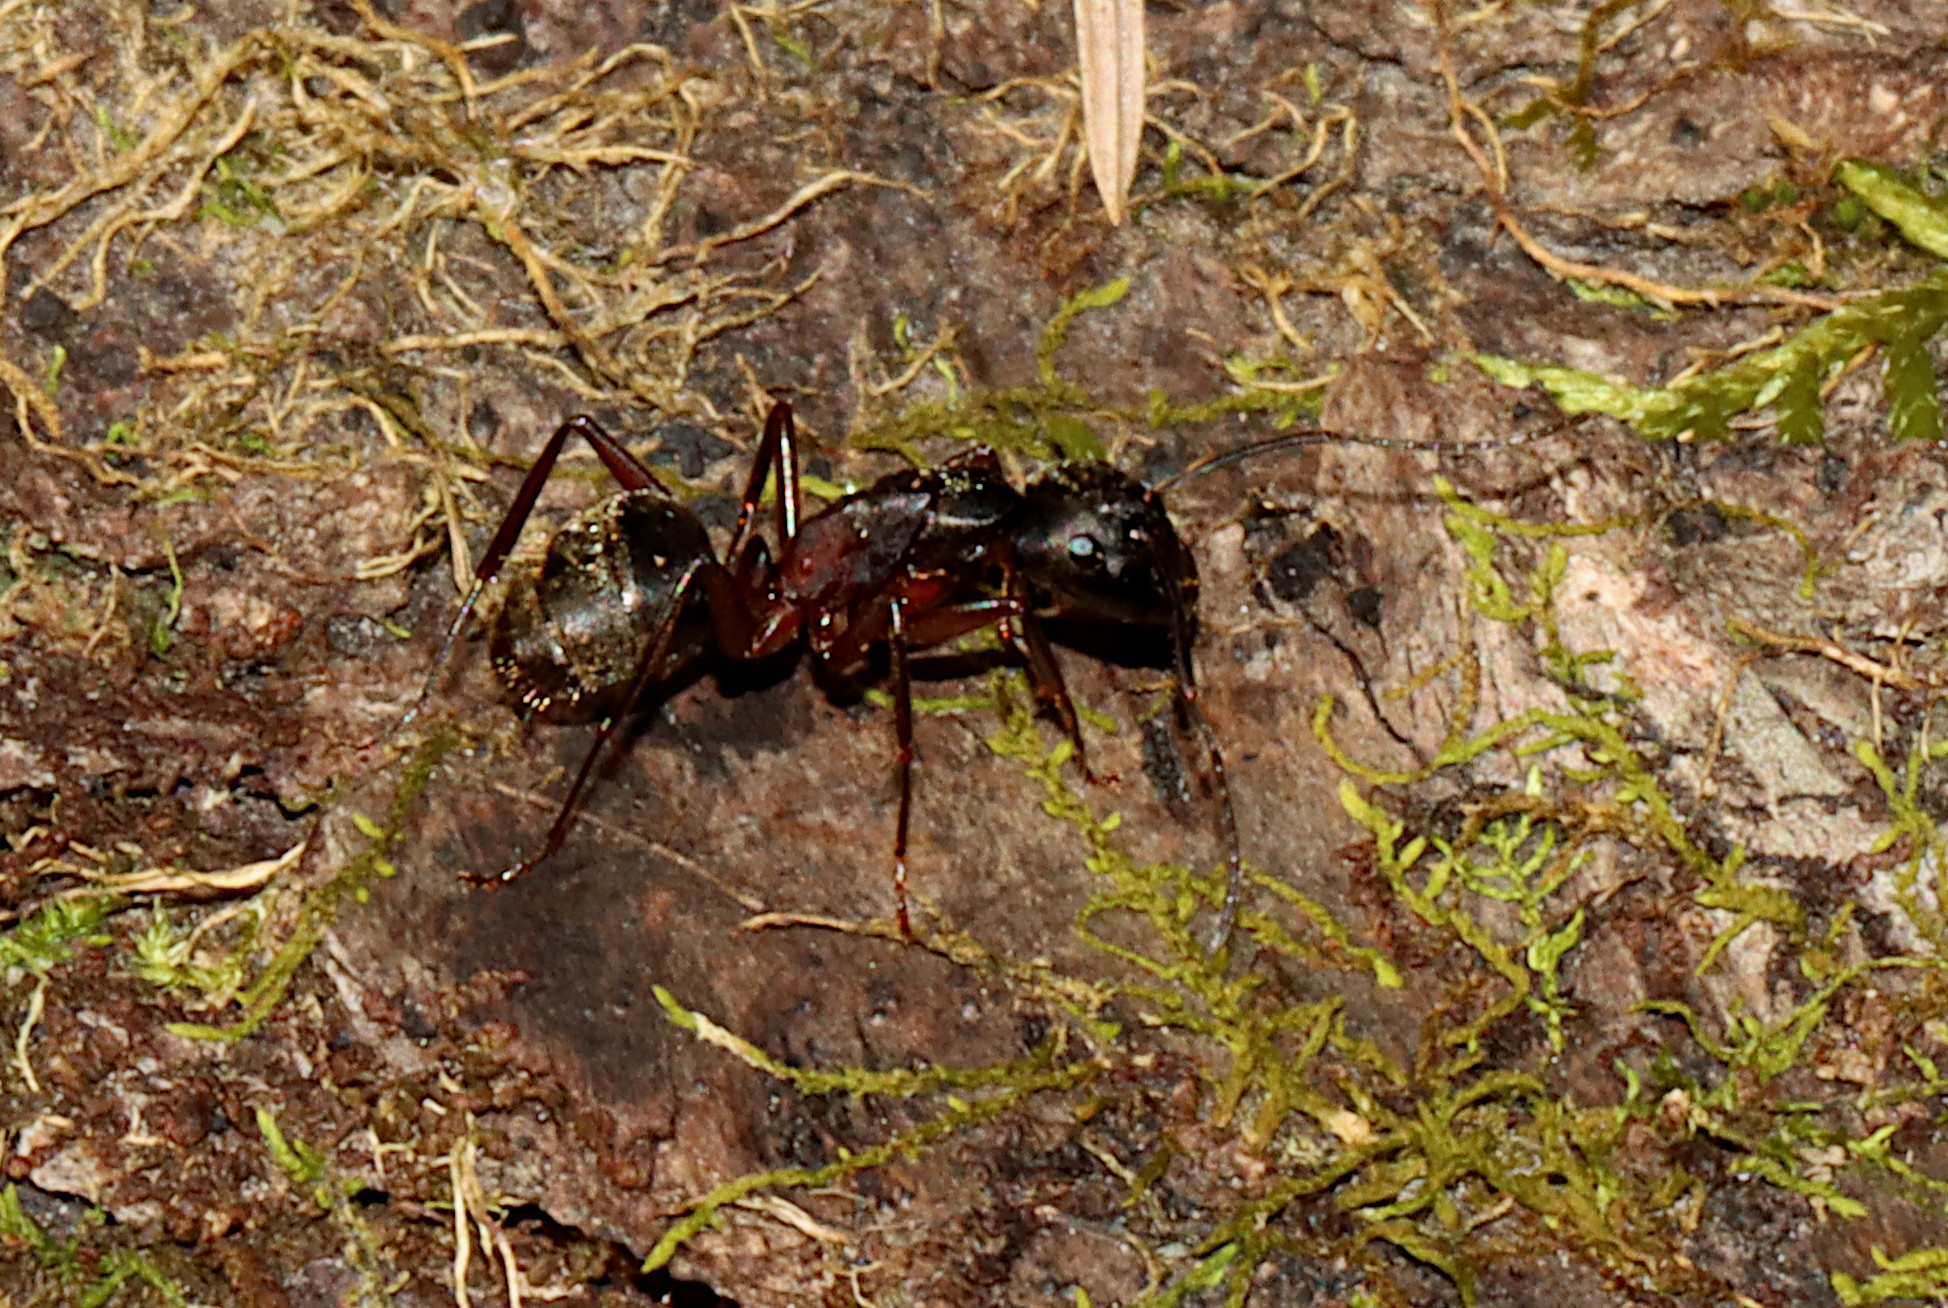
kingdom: Animalia
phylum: Arthropoda
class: Insecta
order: Hymenoptera
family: Formicidae
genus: Camponotus
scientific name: Camponotus chromaiodes
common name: Red carpenter ant
